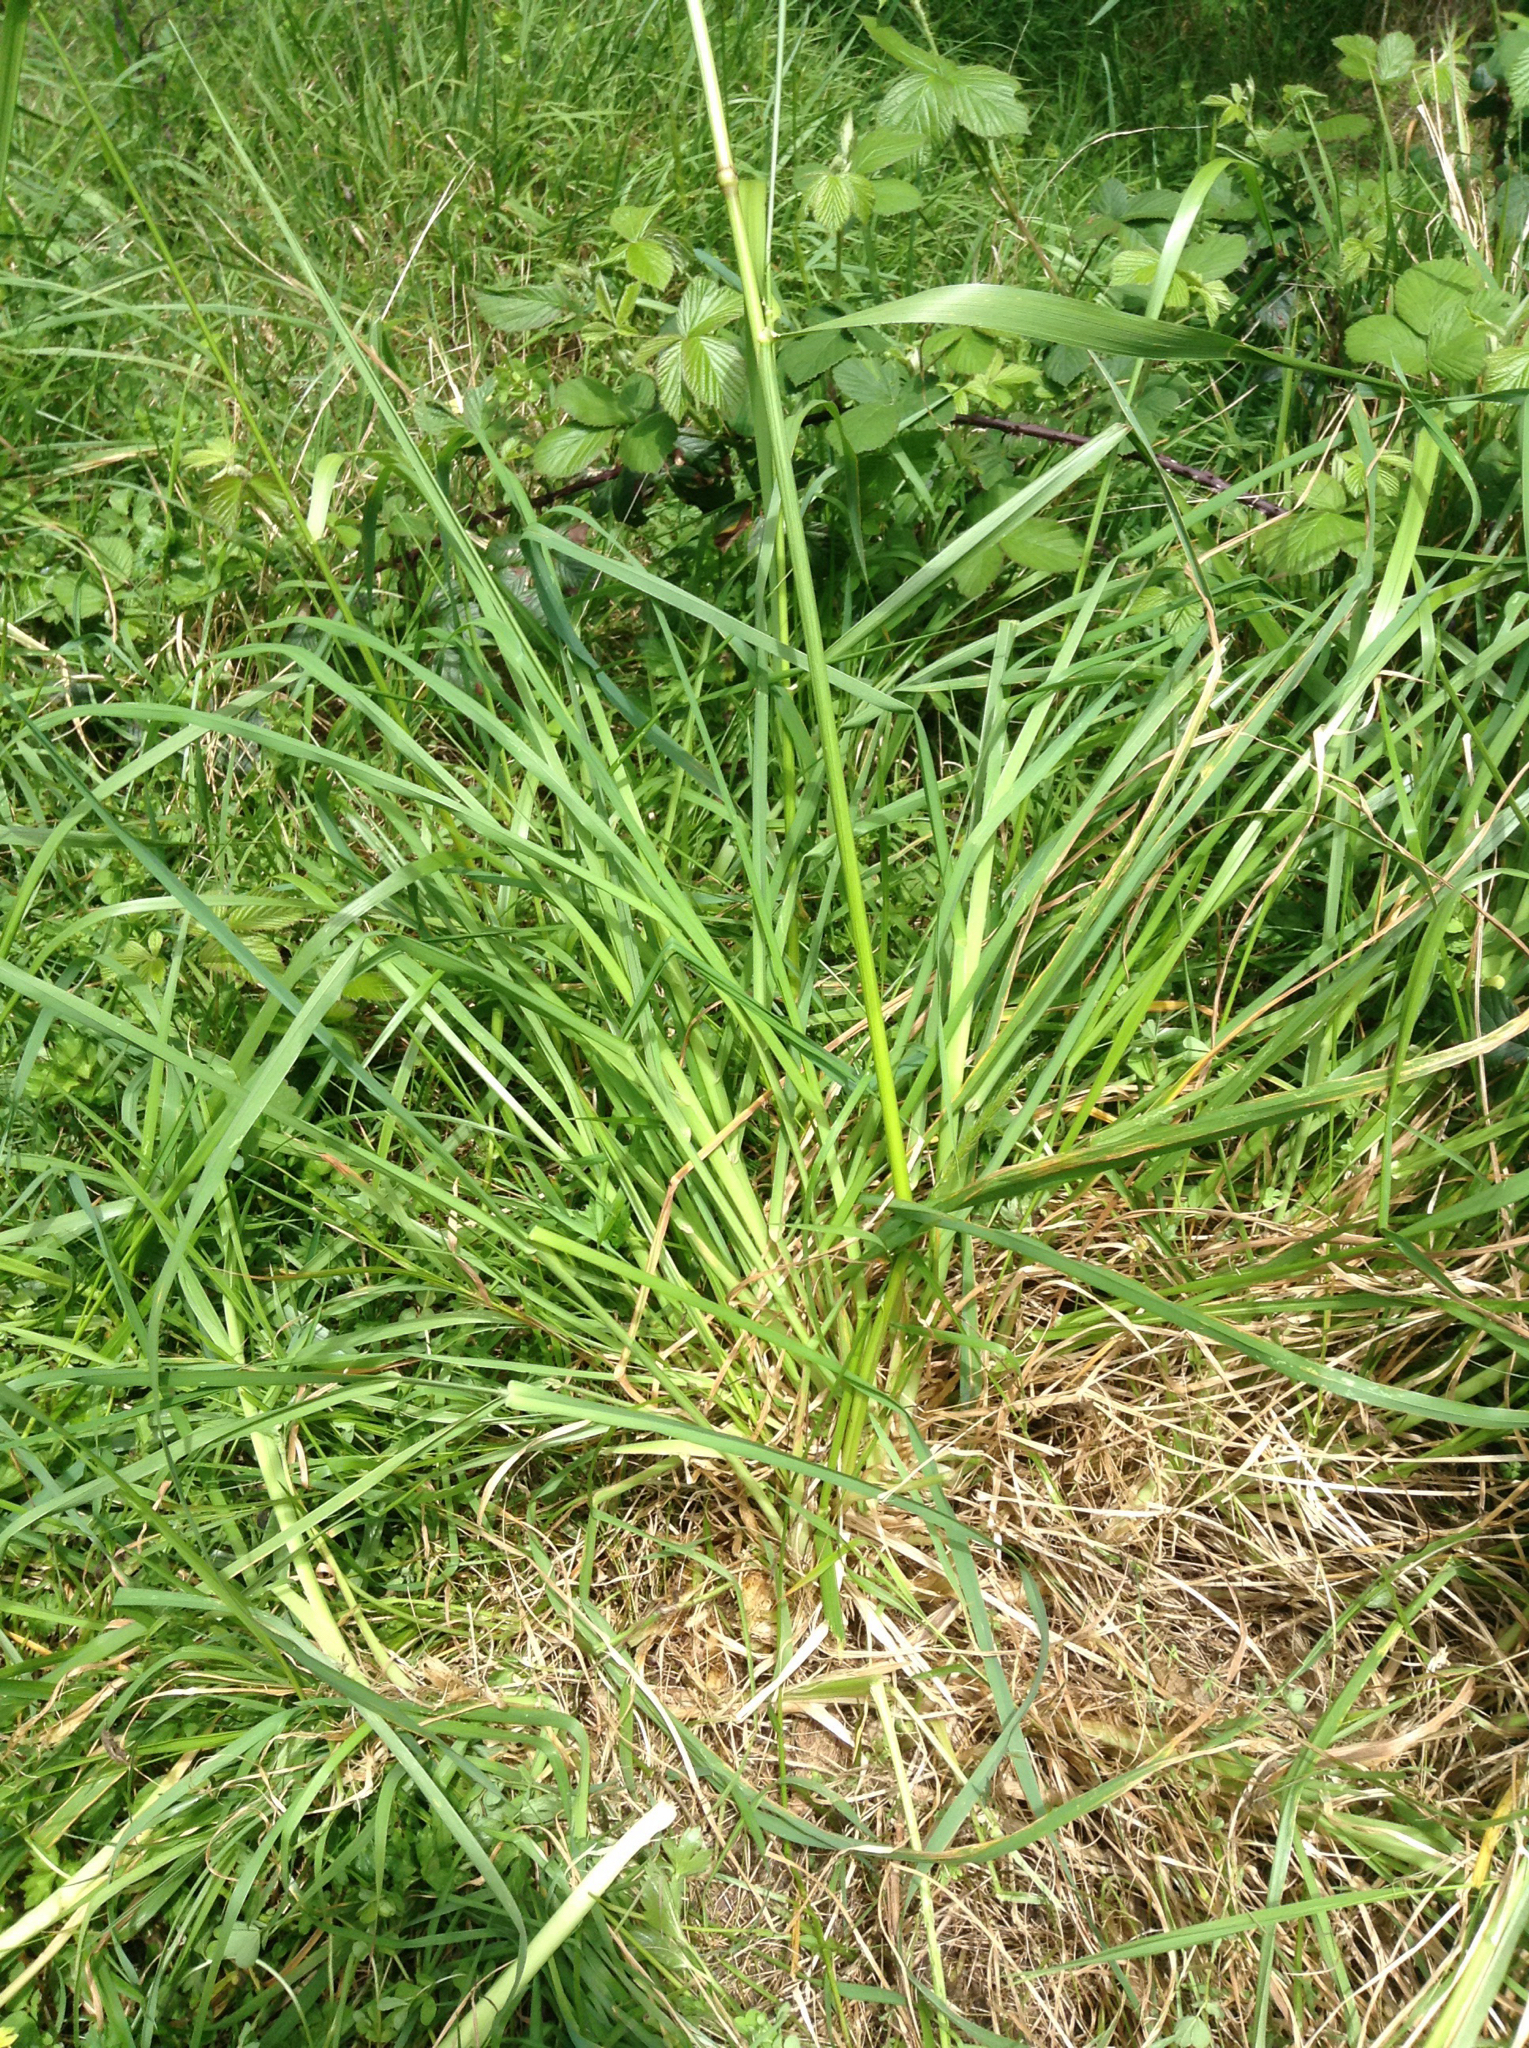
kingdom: Plantae
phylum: Tracheophyta
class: Liliopsida
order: Poales
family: Poaceae
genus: Lolium
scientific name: Lolium arundinaceum
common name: Reed fescue
